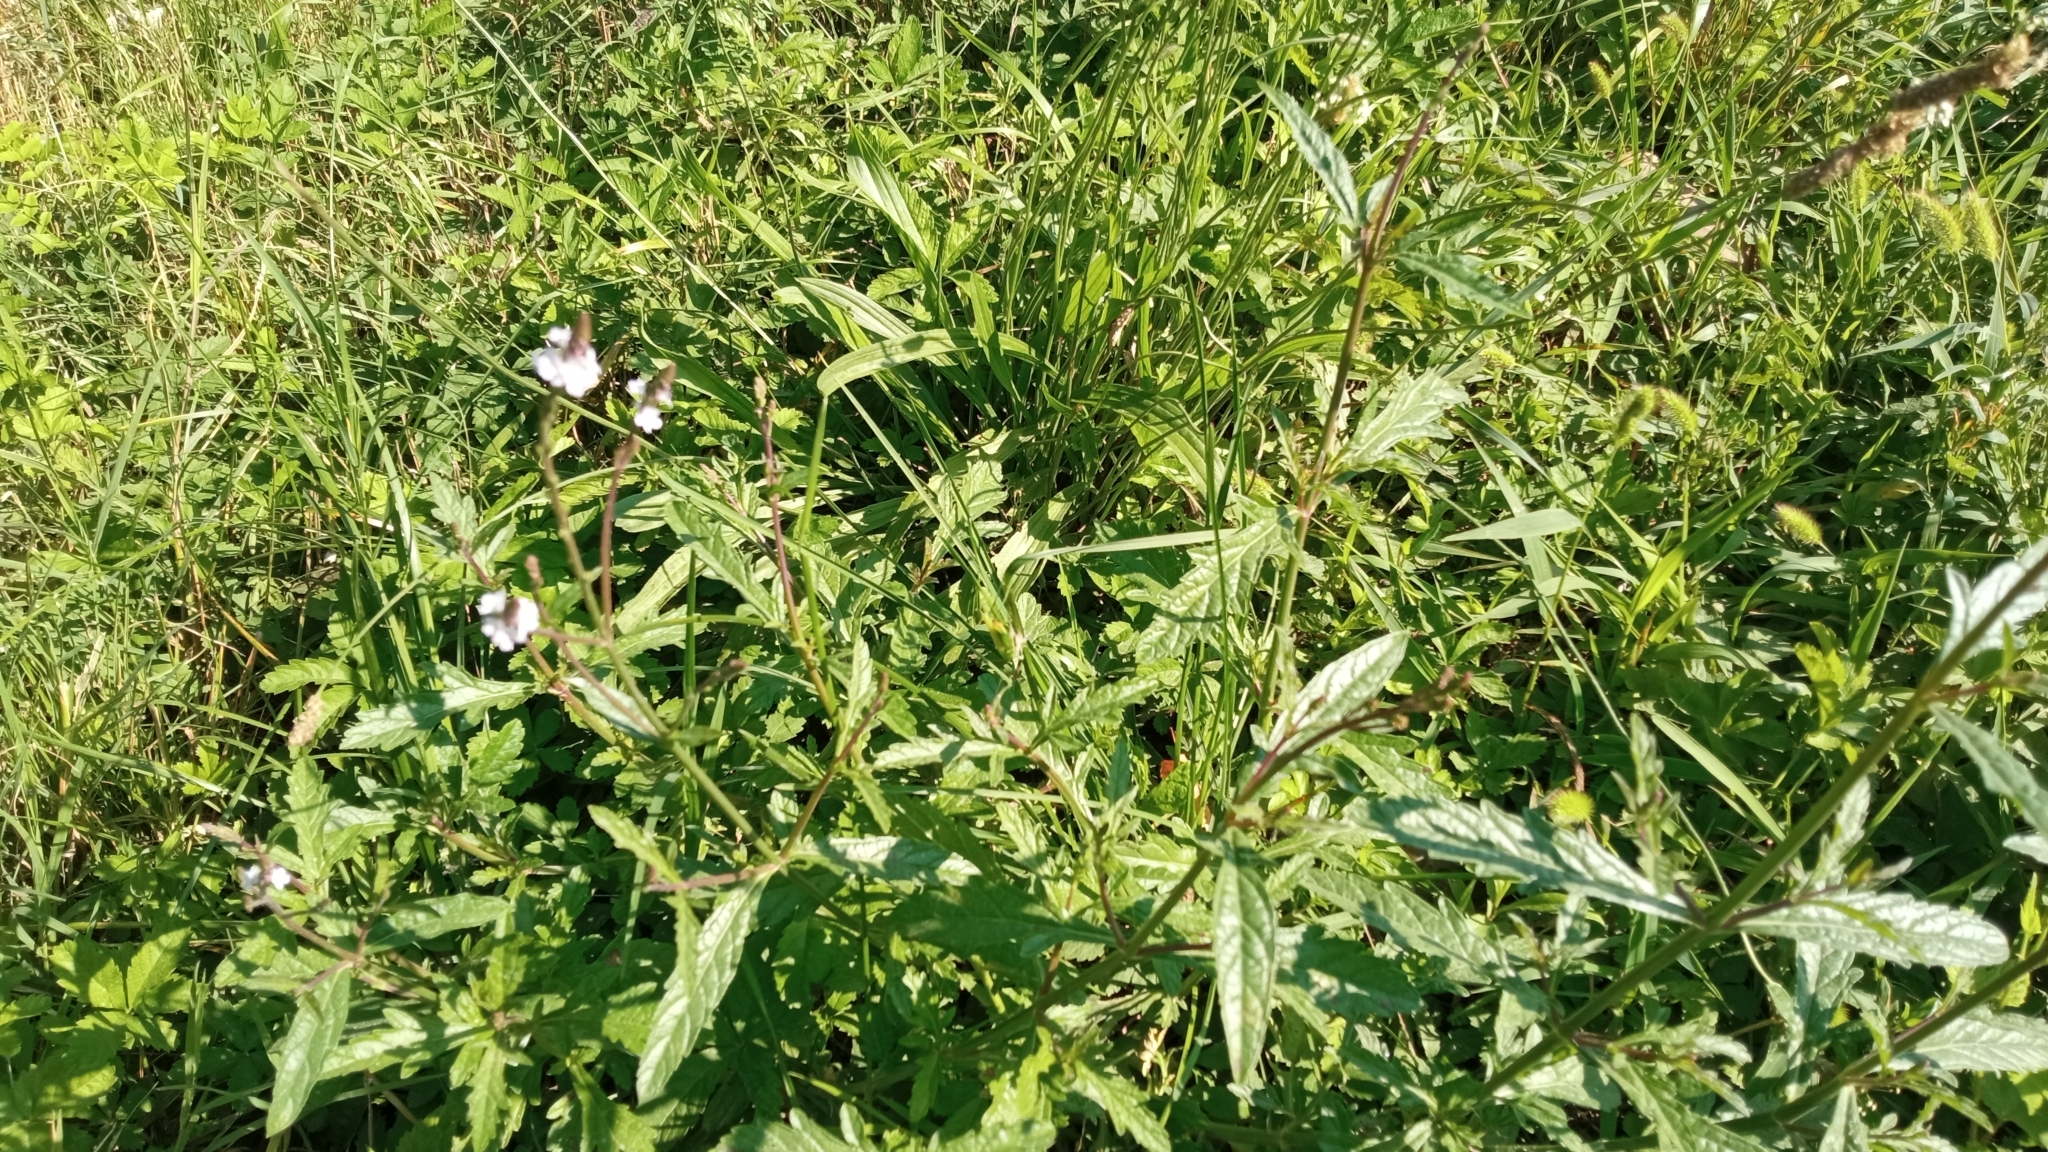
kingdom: Plantae
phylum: Tracheophyta
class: Magnoliopsida
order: Lamiales
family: Verbenaceae
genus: Verbena
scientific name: Verbena officinalis
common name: Vervain
